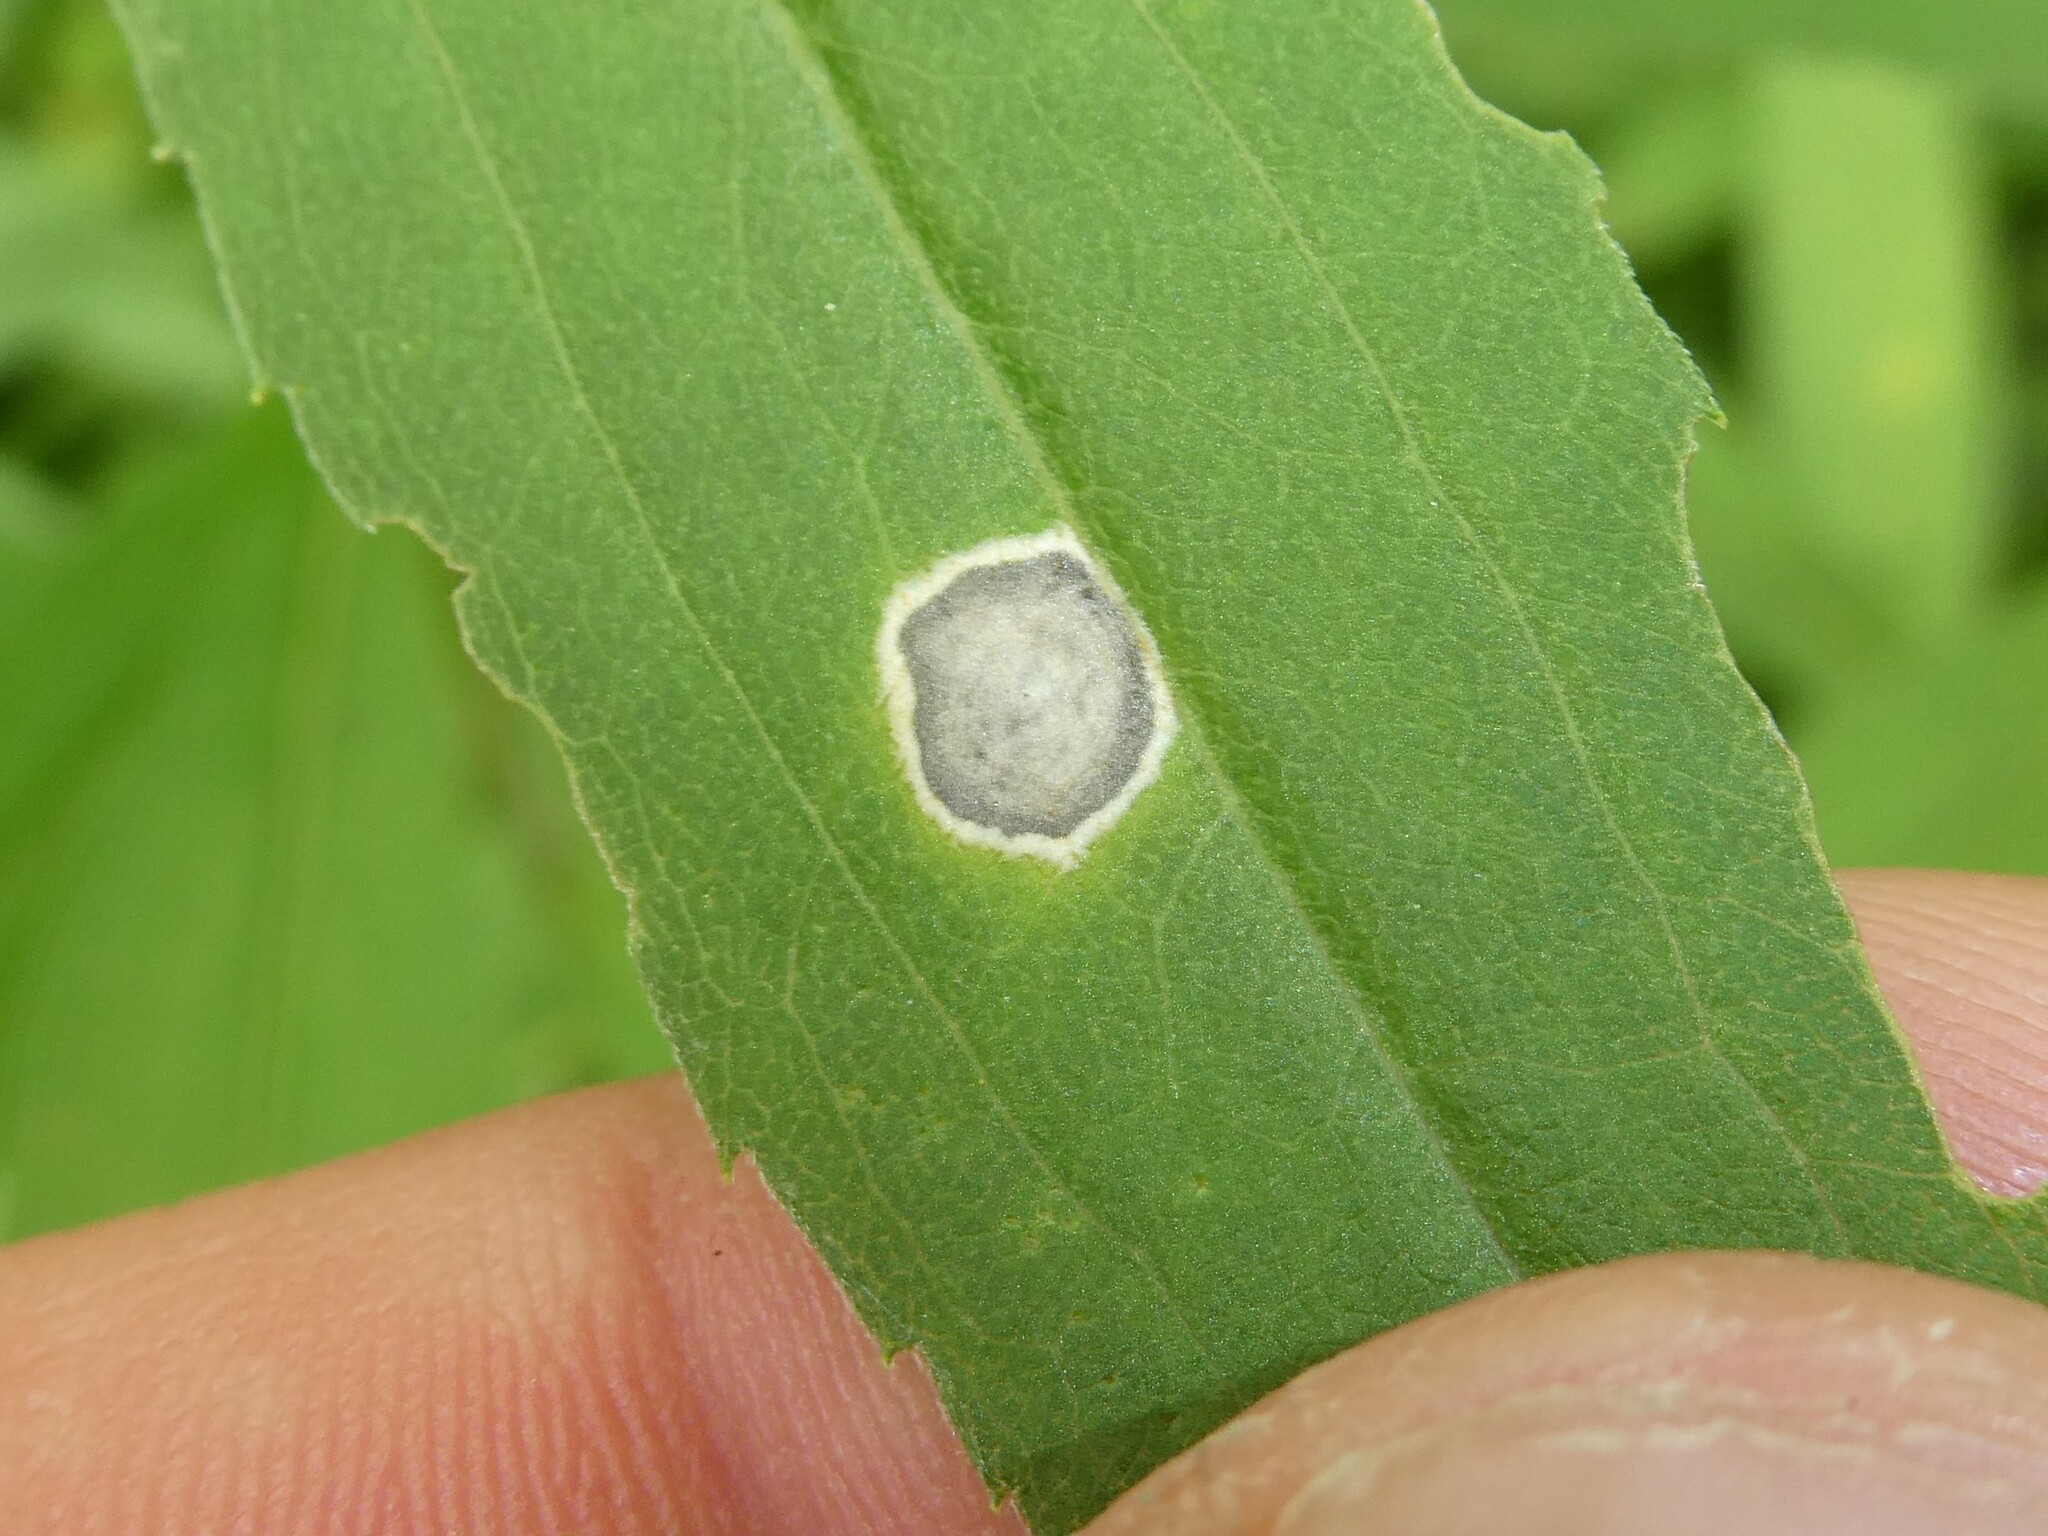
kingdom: Animalia
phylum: Arthropoda
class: Insecta
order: Diptera
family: Cecidomyiidae
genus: Asteromyia
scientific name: Asteromyia carbonifera
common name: Carbonifera goldenrod gall midge
